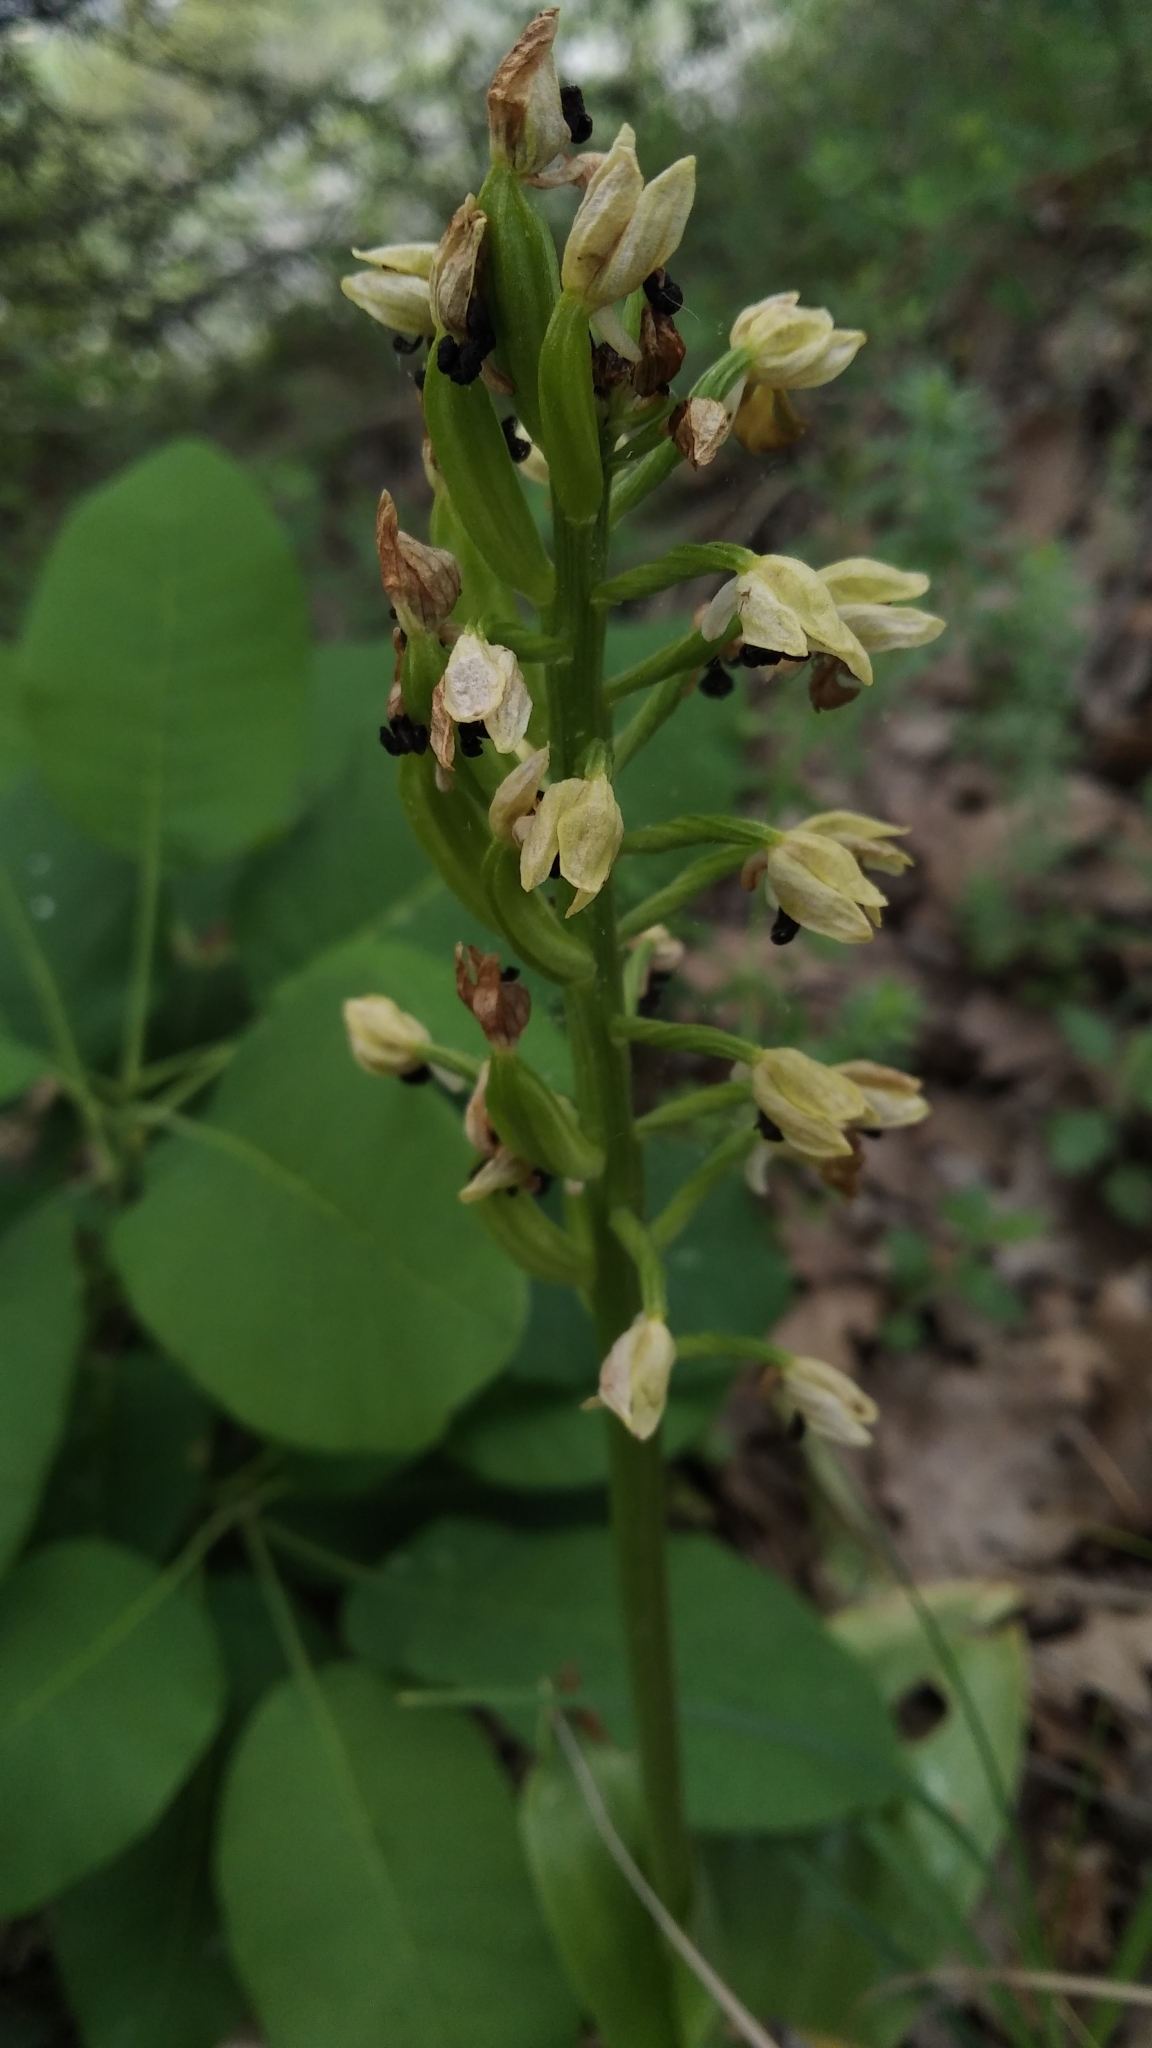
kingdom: Plantae
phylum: Tracheophyta
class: Liliopsida
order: Asparagales
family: Orchidaceae
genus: Orchis
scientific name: Orchis punctulata
